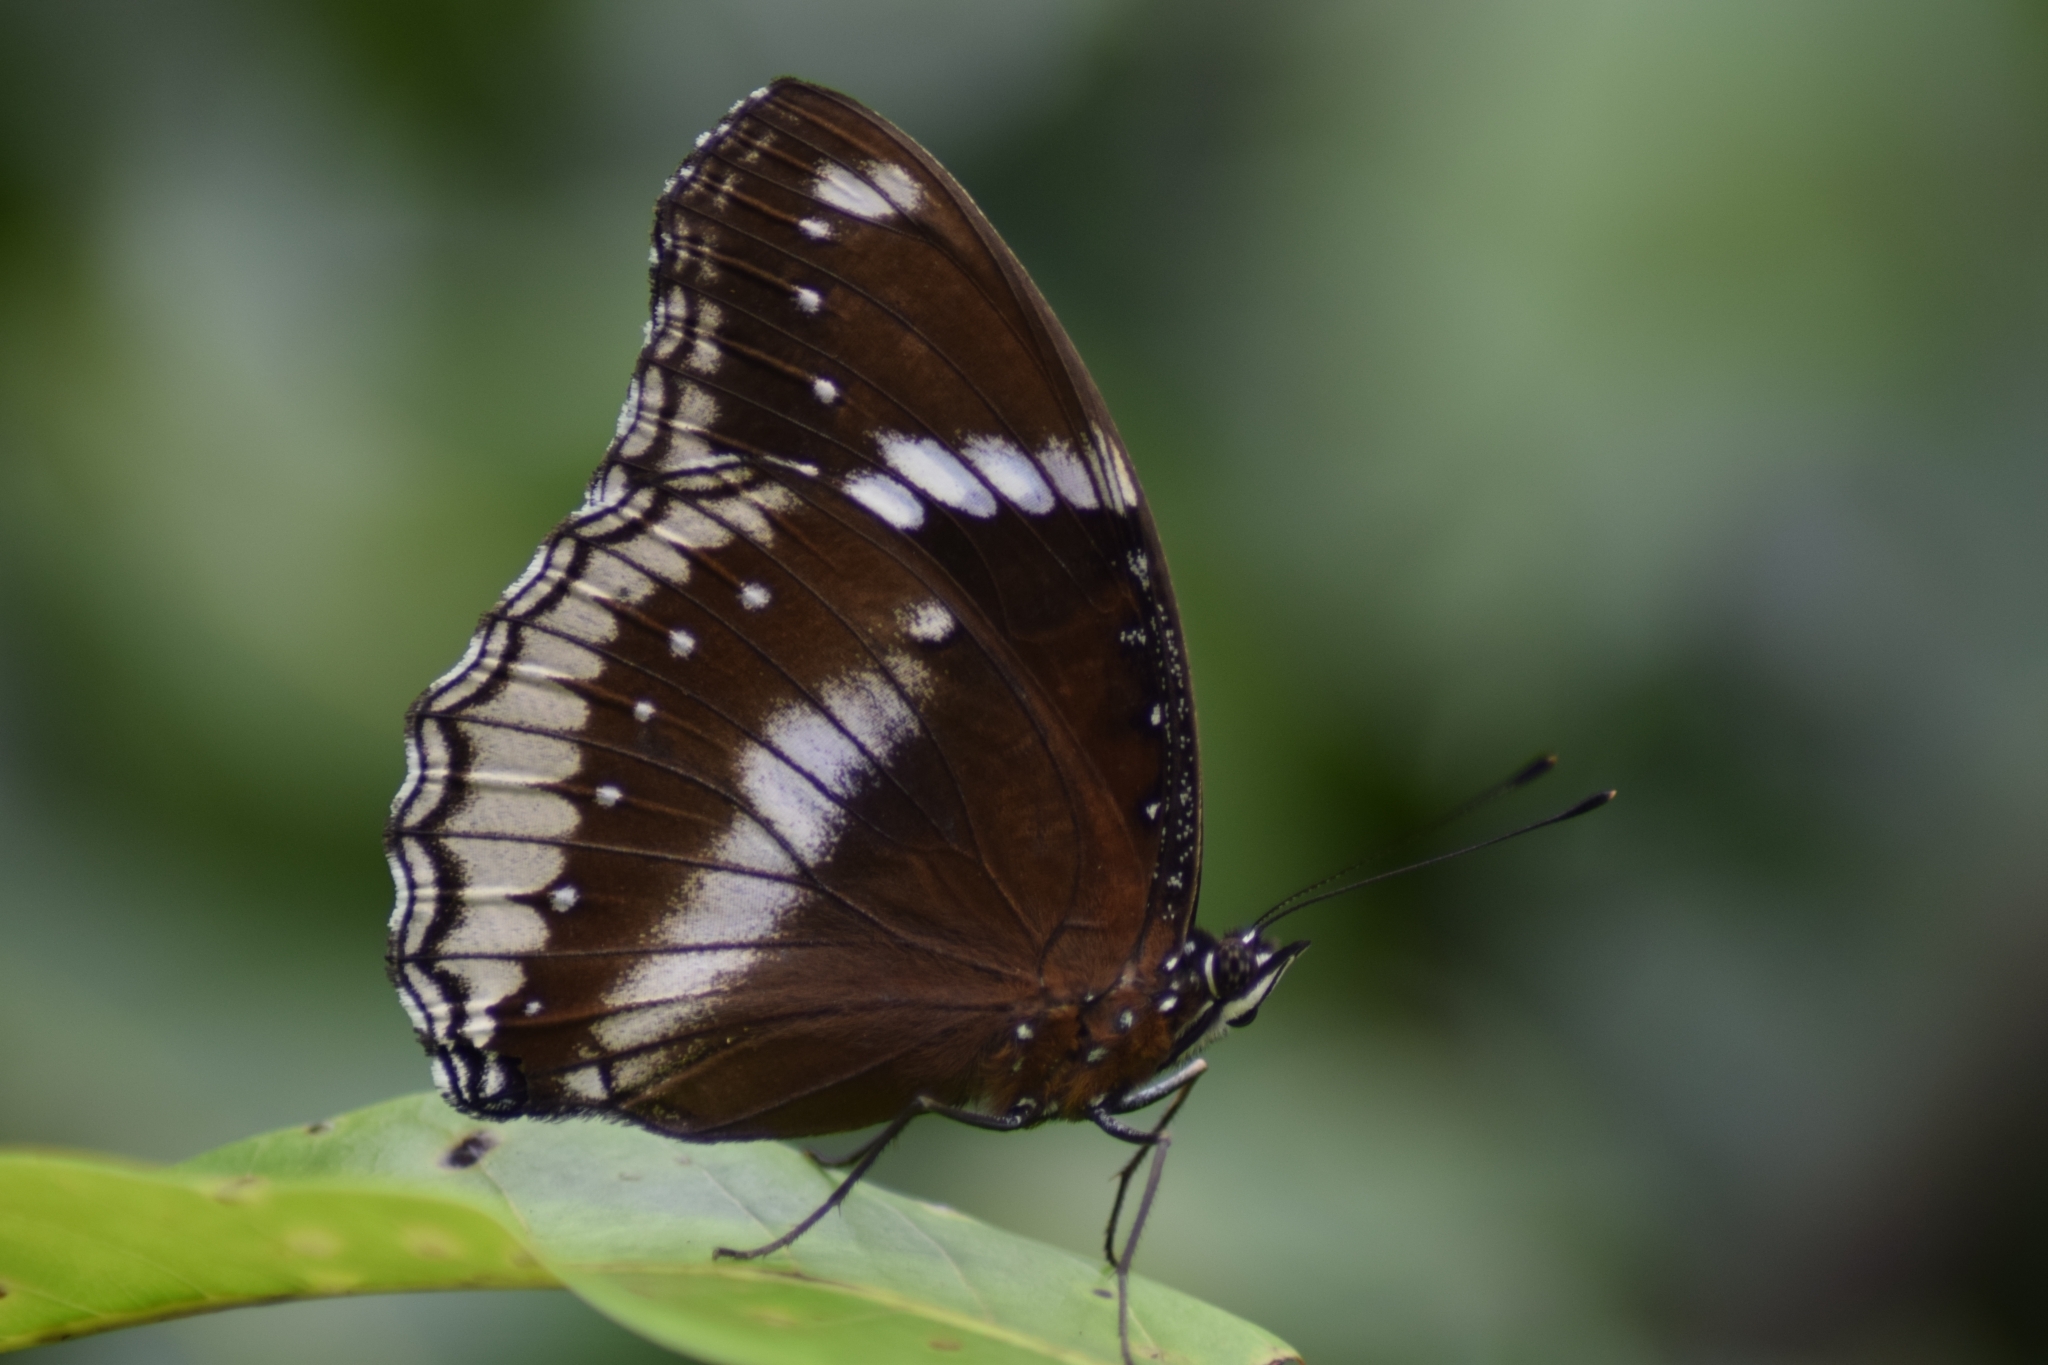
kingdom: Animalia
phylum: Arthropoda
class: Insecta
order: Lepidoptera
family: Nymphalidae
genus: Hypolimnas
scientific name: Hypolimnas bolina
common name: Great eggfly
